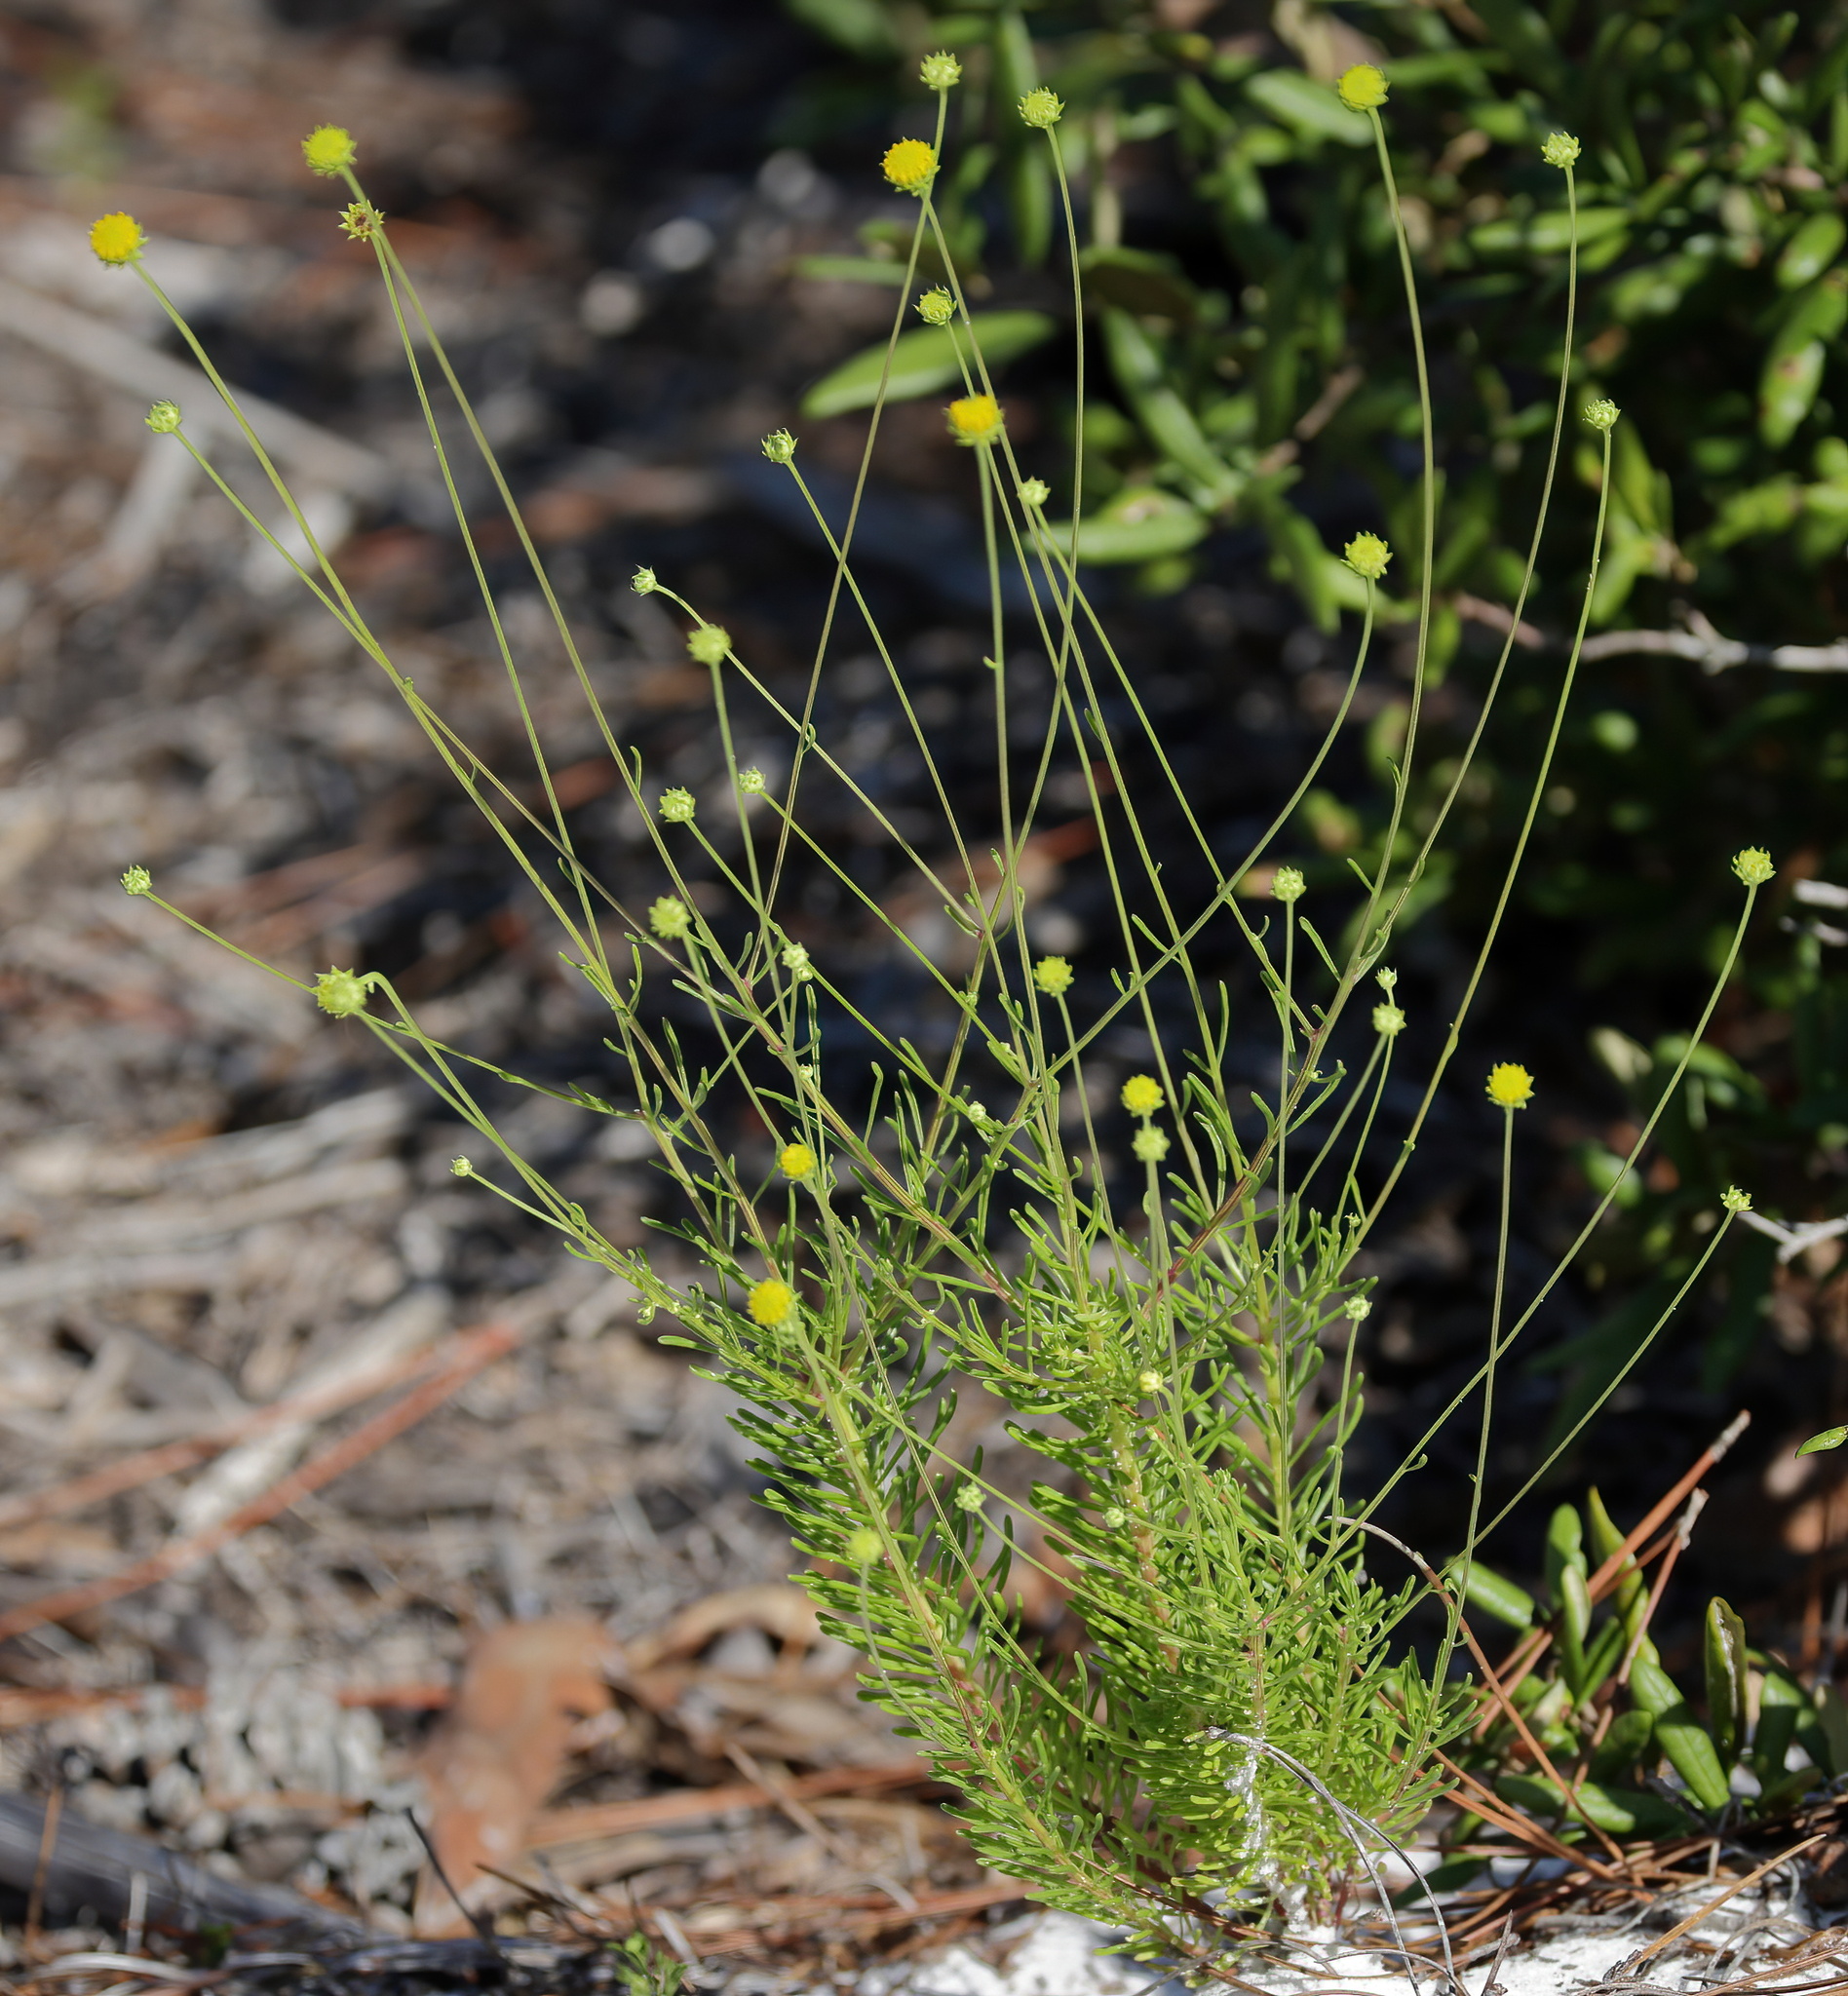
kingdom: Plantae
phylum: Tracheophyta
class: Magnoliopsida
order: Asterales
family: Asteraceae
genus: Balduina
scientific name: Balduina angustifolia
